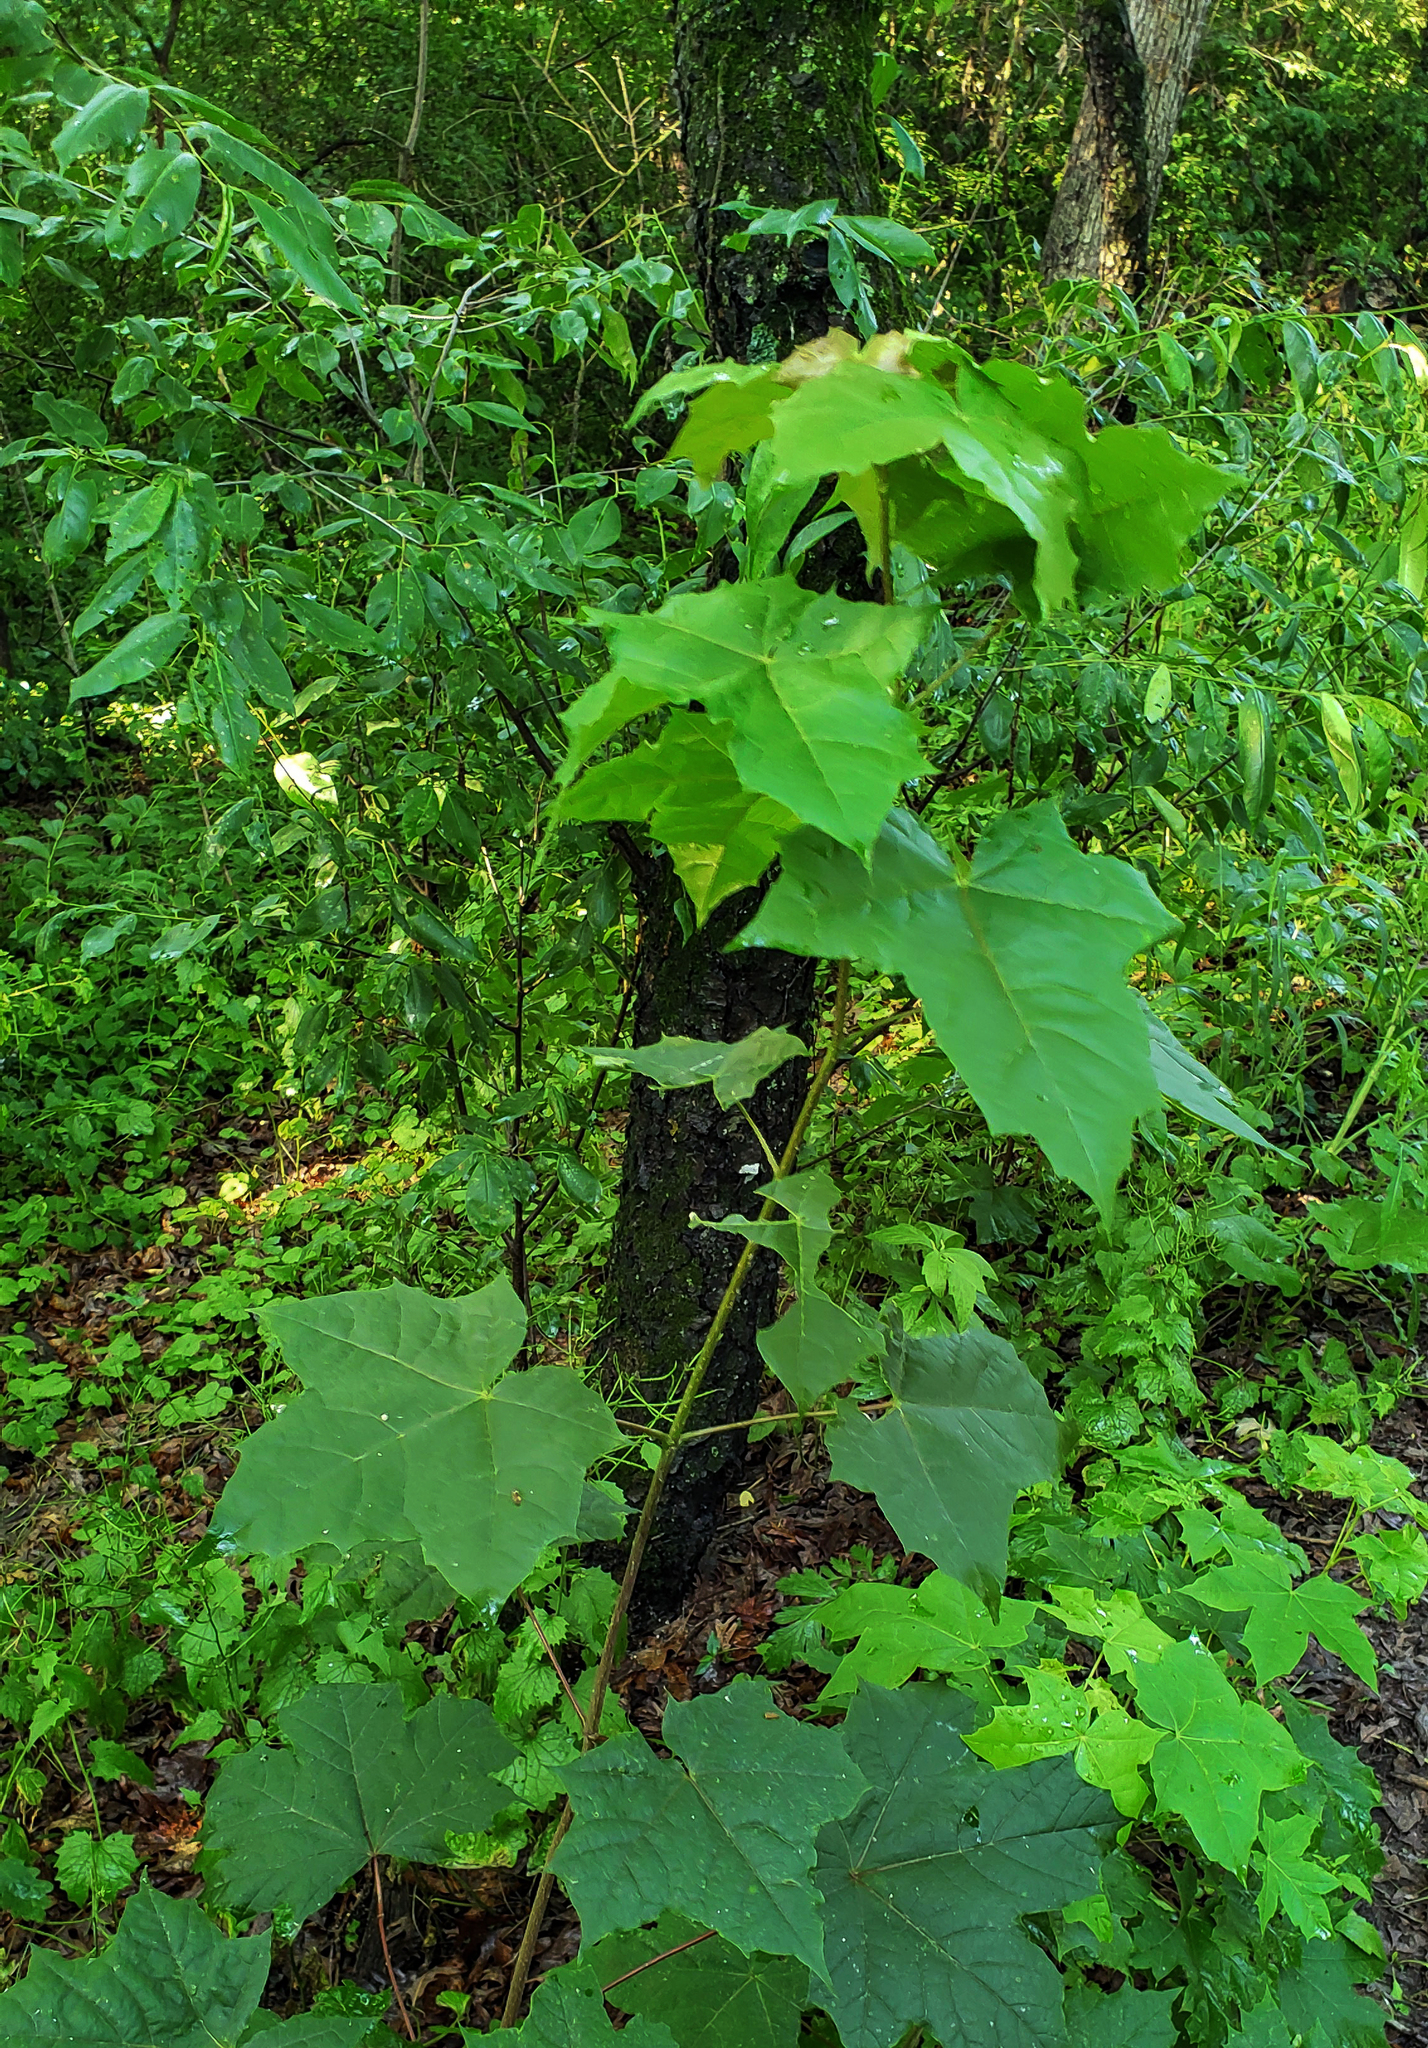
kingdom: Plantae
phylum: Tracheophyta
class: Magnoliopsida
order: Sapindales
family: Sapindaceae
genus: Acer
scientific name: Acer nigrum
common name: Black maple
